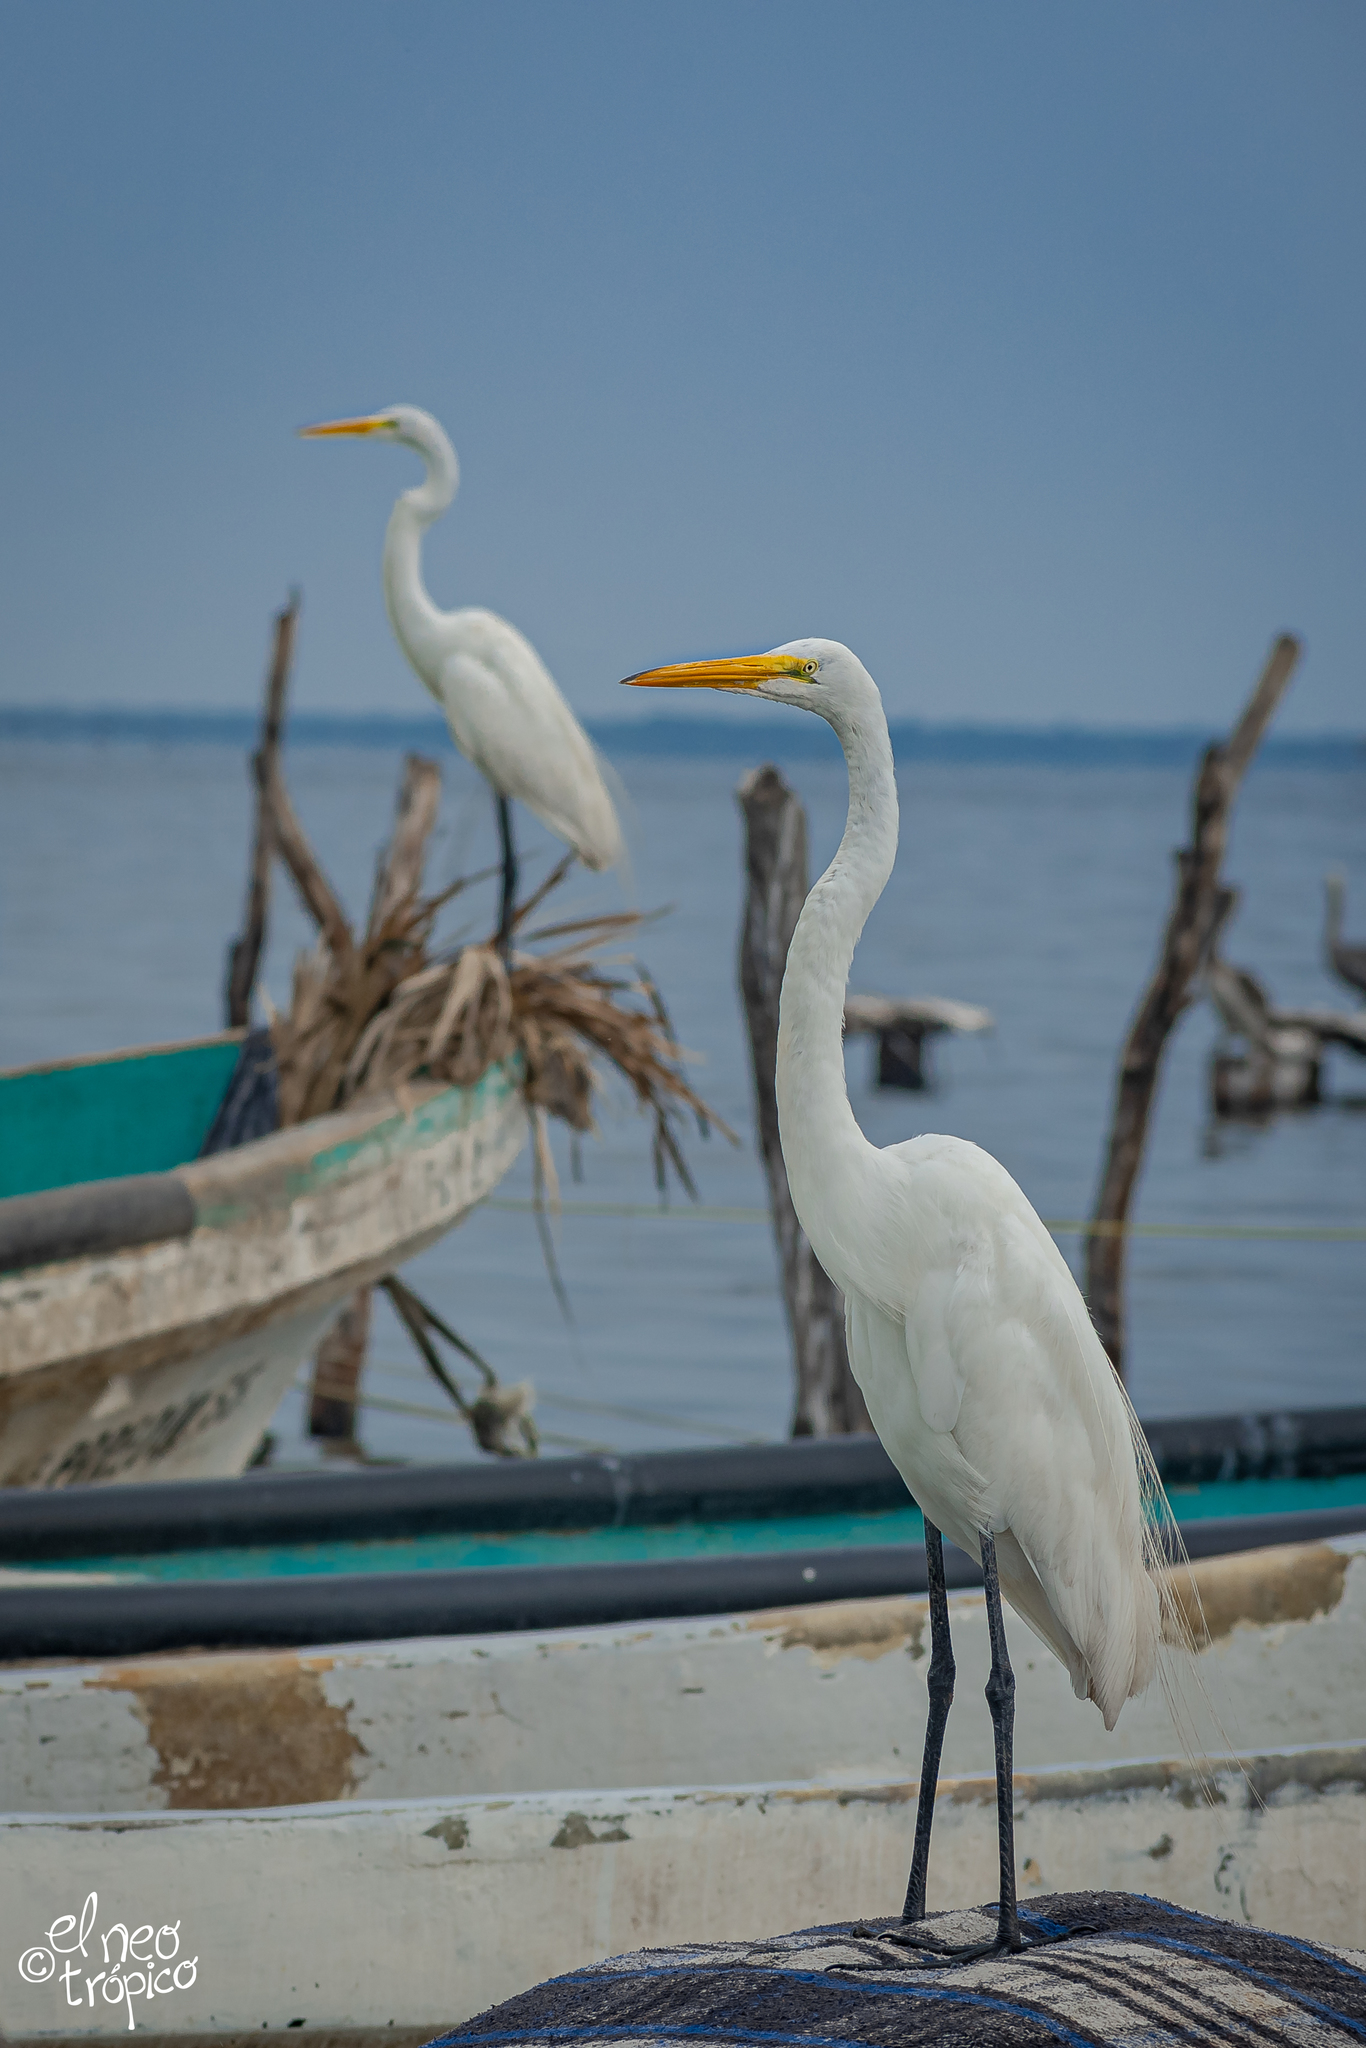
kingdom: Animalia
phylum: Chordata
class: Aves
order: Pelecaniformes
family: Ardeidae
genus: Ardea
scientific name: Ardea alba
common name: Great egret
